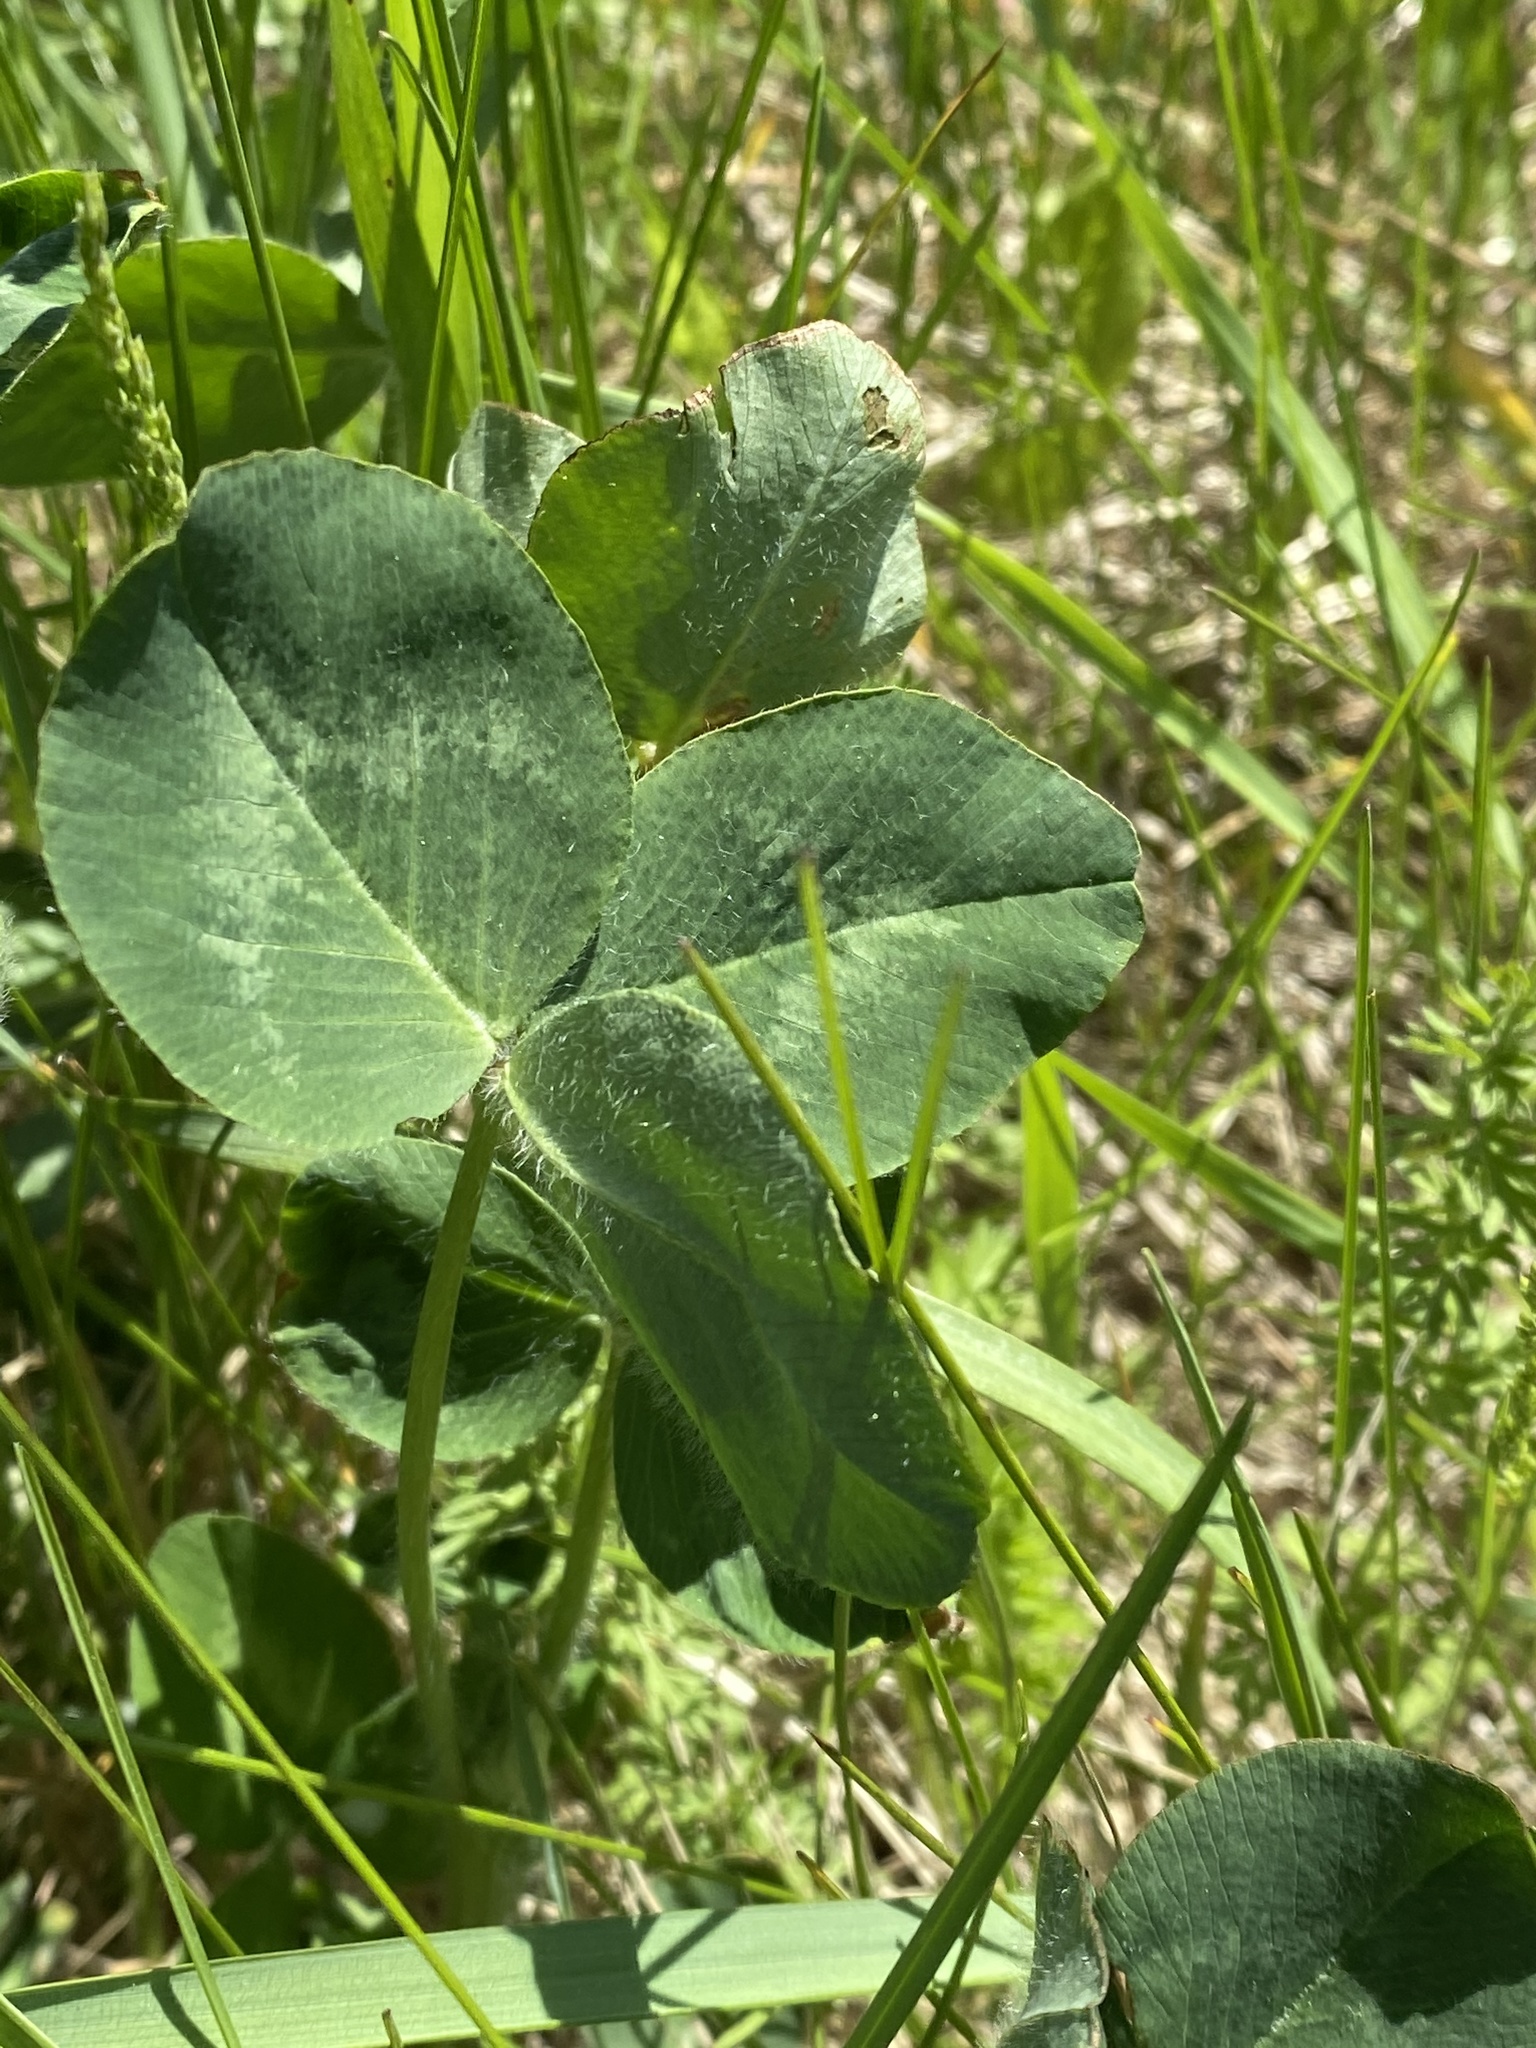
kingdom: Plantae
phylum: Tracheophyta
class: Magnoliopsida
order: Fabales
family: Fabaceae
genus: Trifolium
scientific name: Trifolium pratense
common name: Red clover
